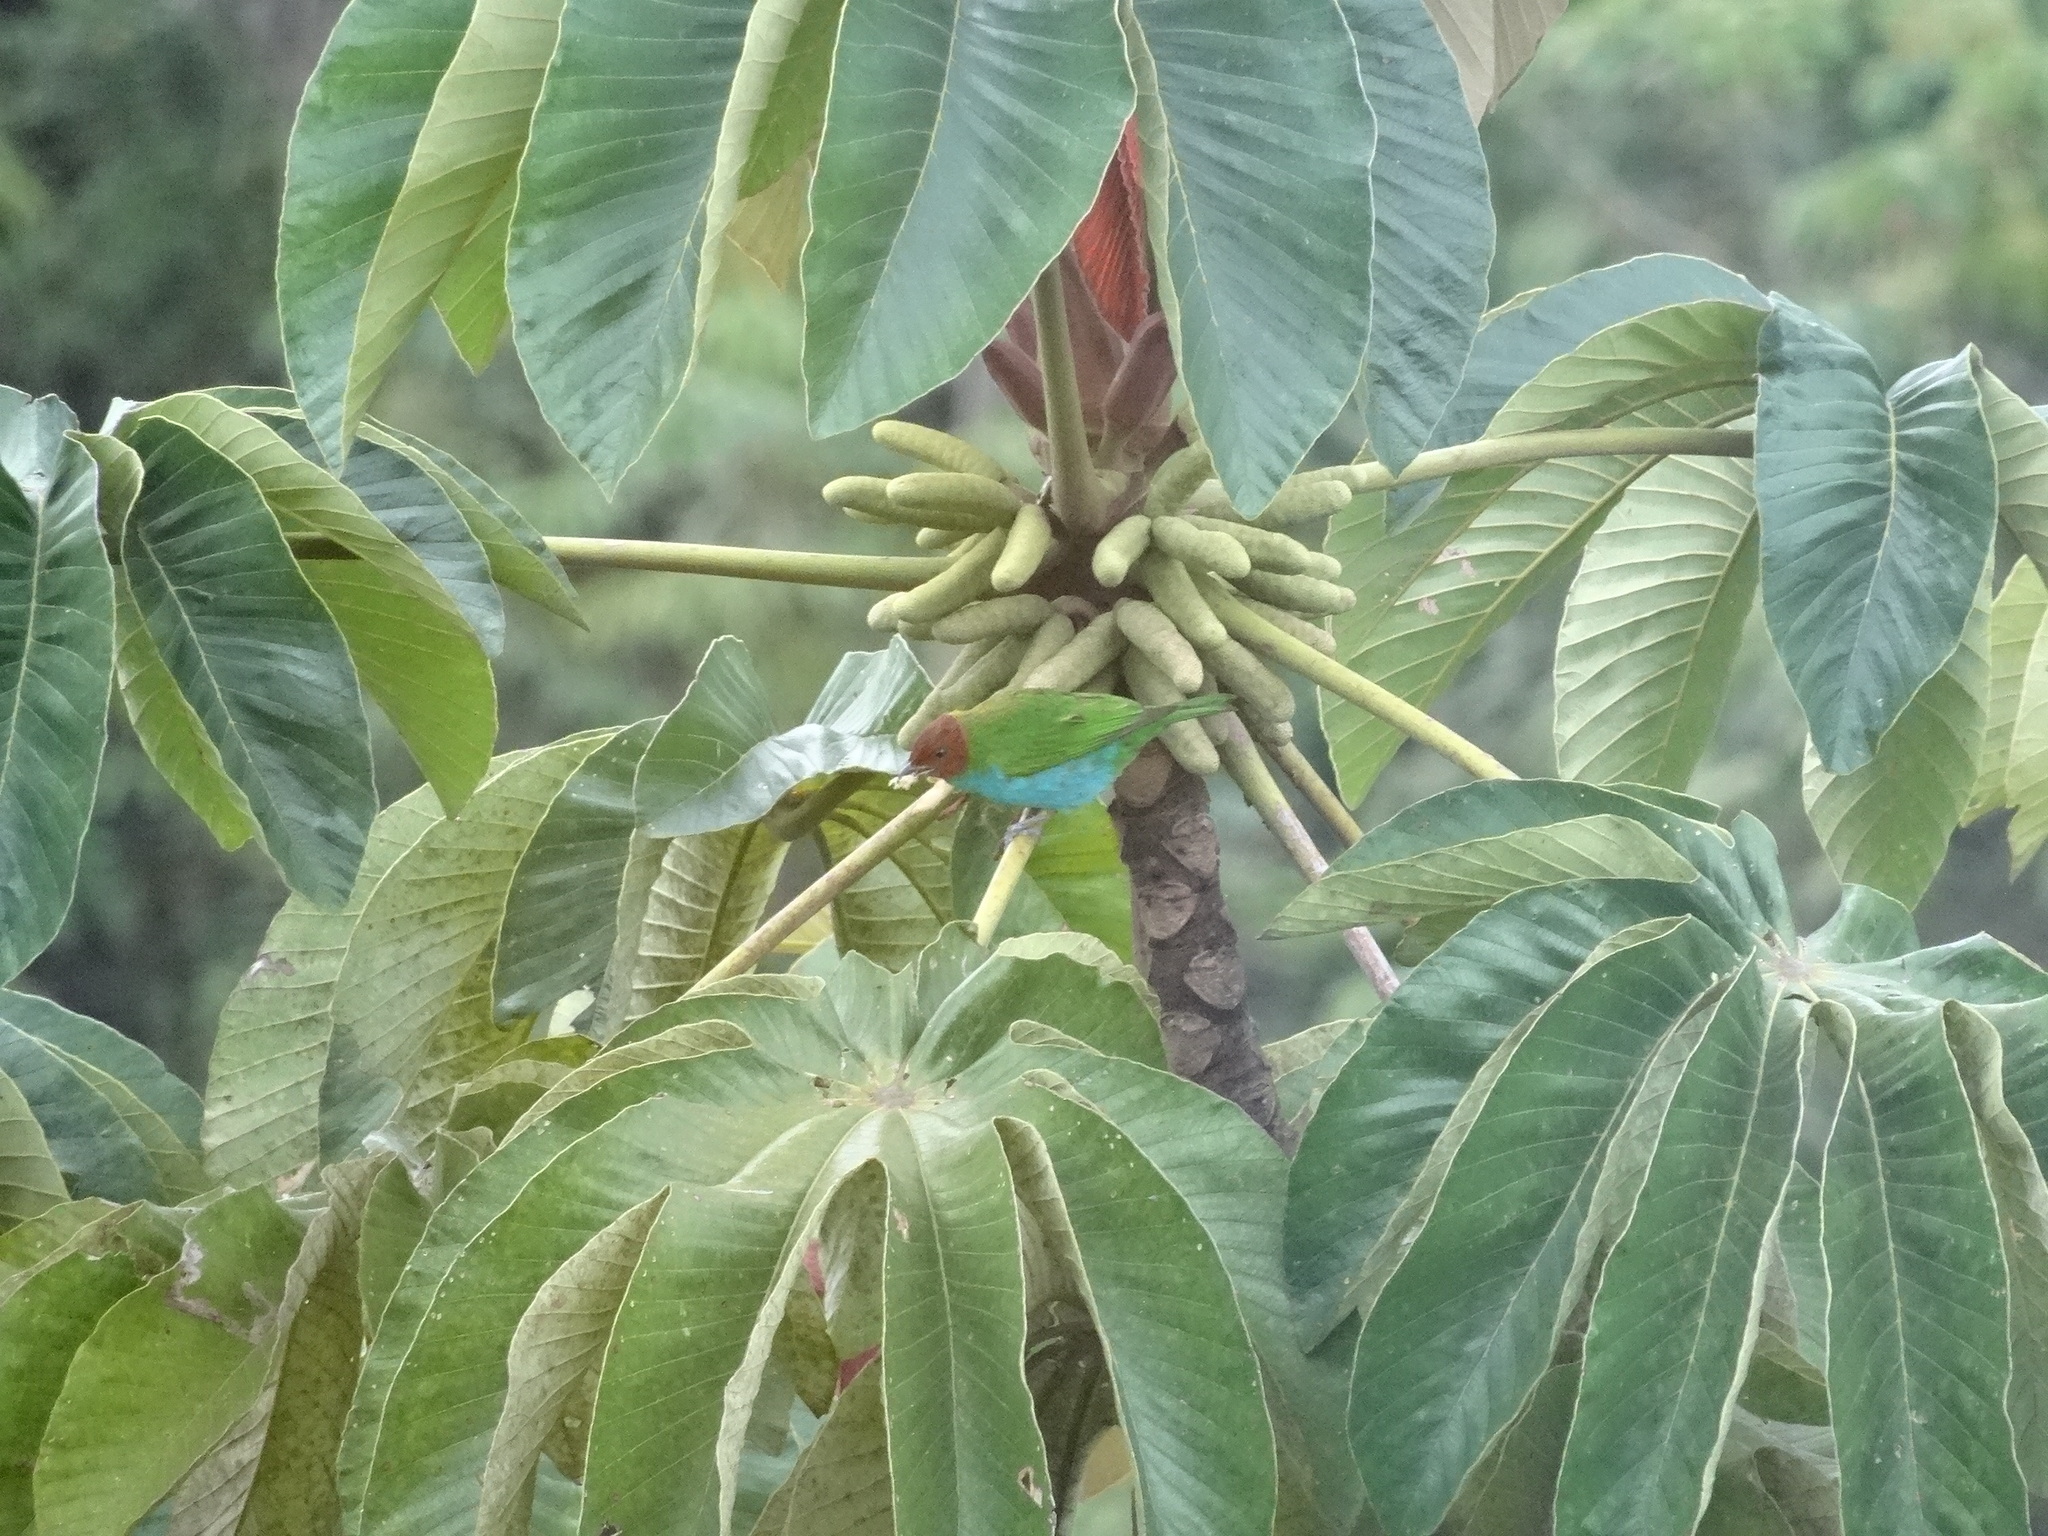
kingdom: Animalia
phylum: Chordata
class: Aves
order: Passeriformes
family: Thraupidae
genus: Tangara
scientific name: Tangara gyrola
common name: Bay-headed tanager
